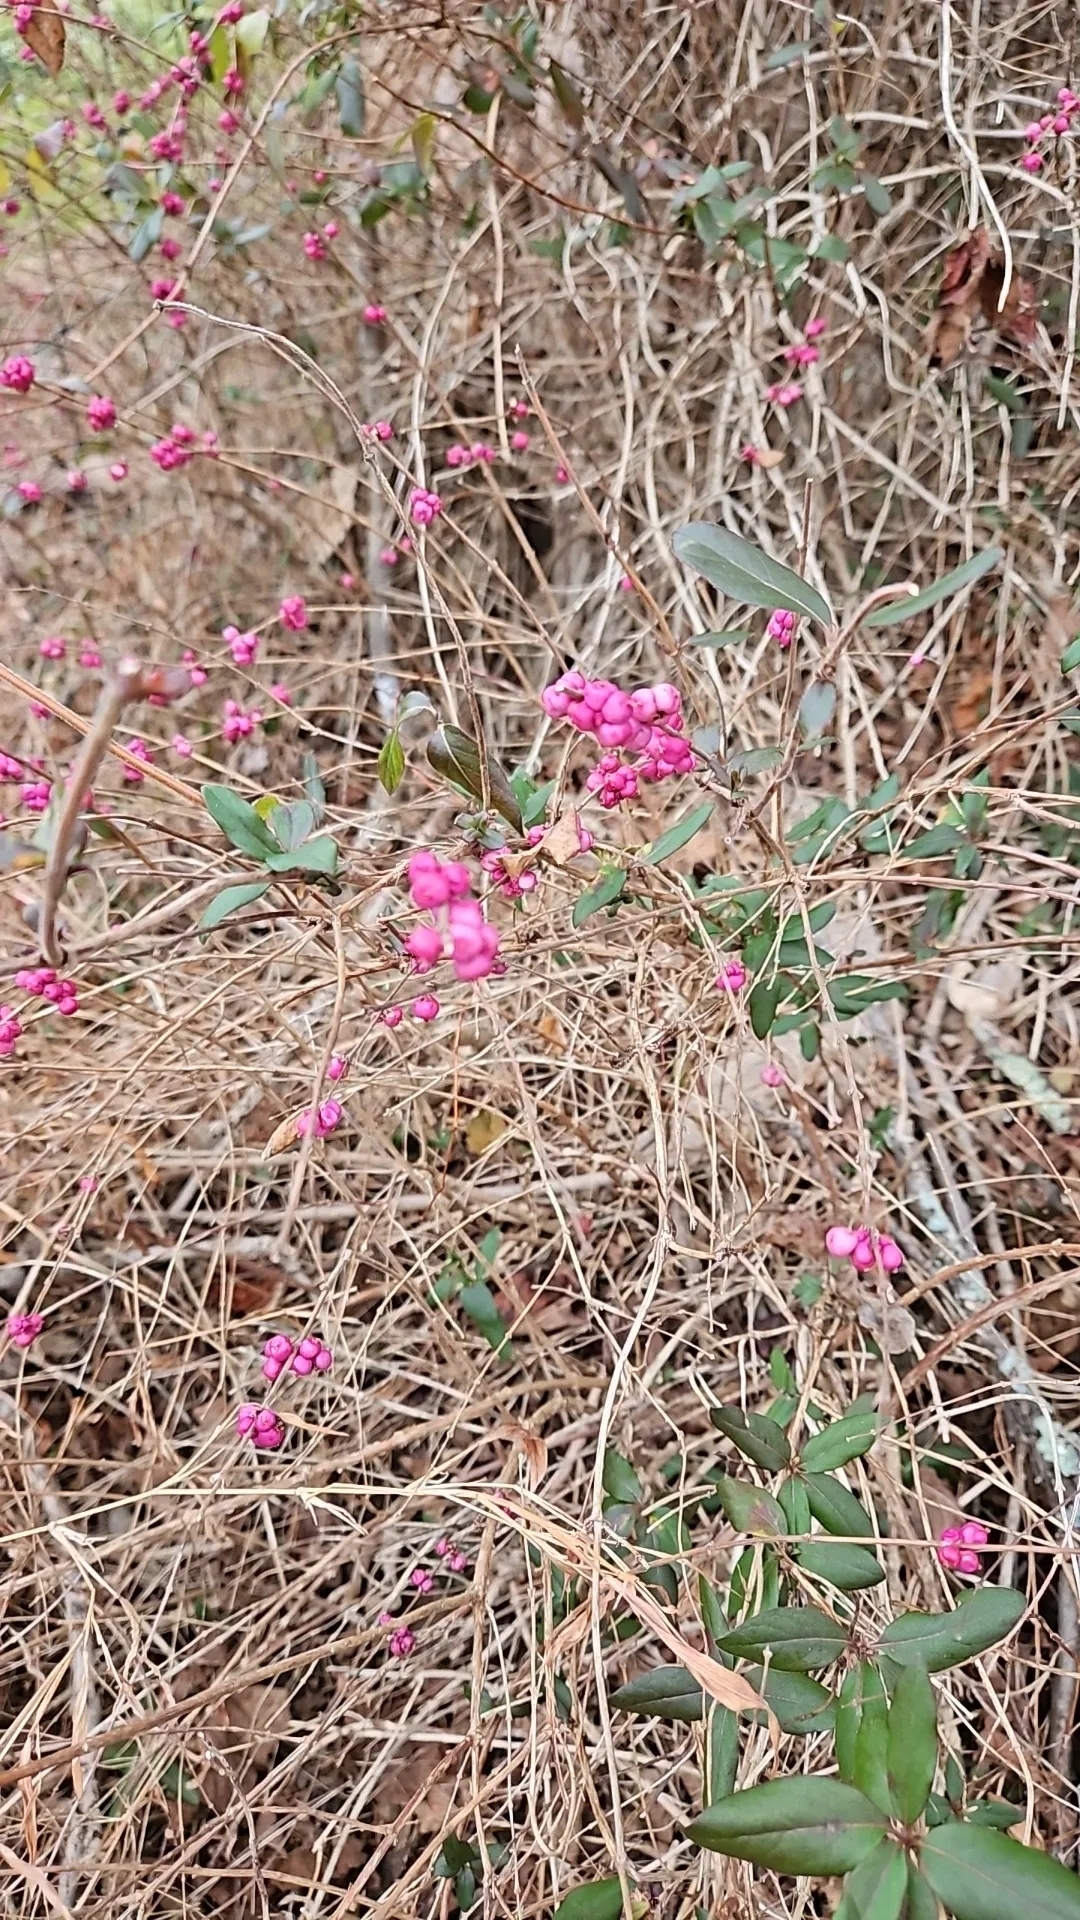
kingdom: Plantae
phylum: Tracheophyta
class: Magnoliopsida
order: Dipsacales
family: Caprifoliaceae
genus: Symphoricarpos
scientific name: Symphoricarpos orbiculatus
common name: Coralberry
